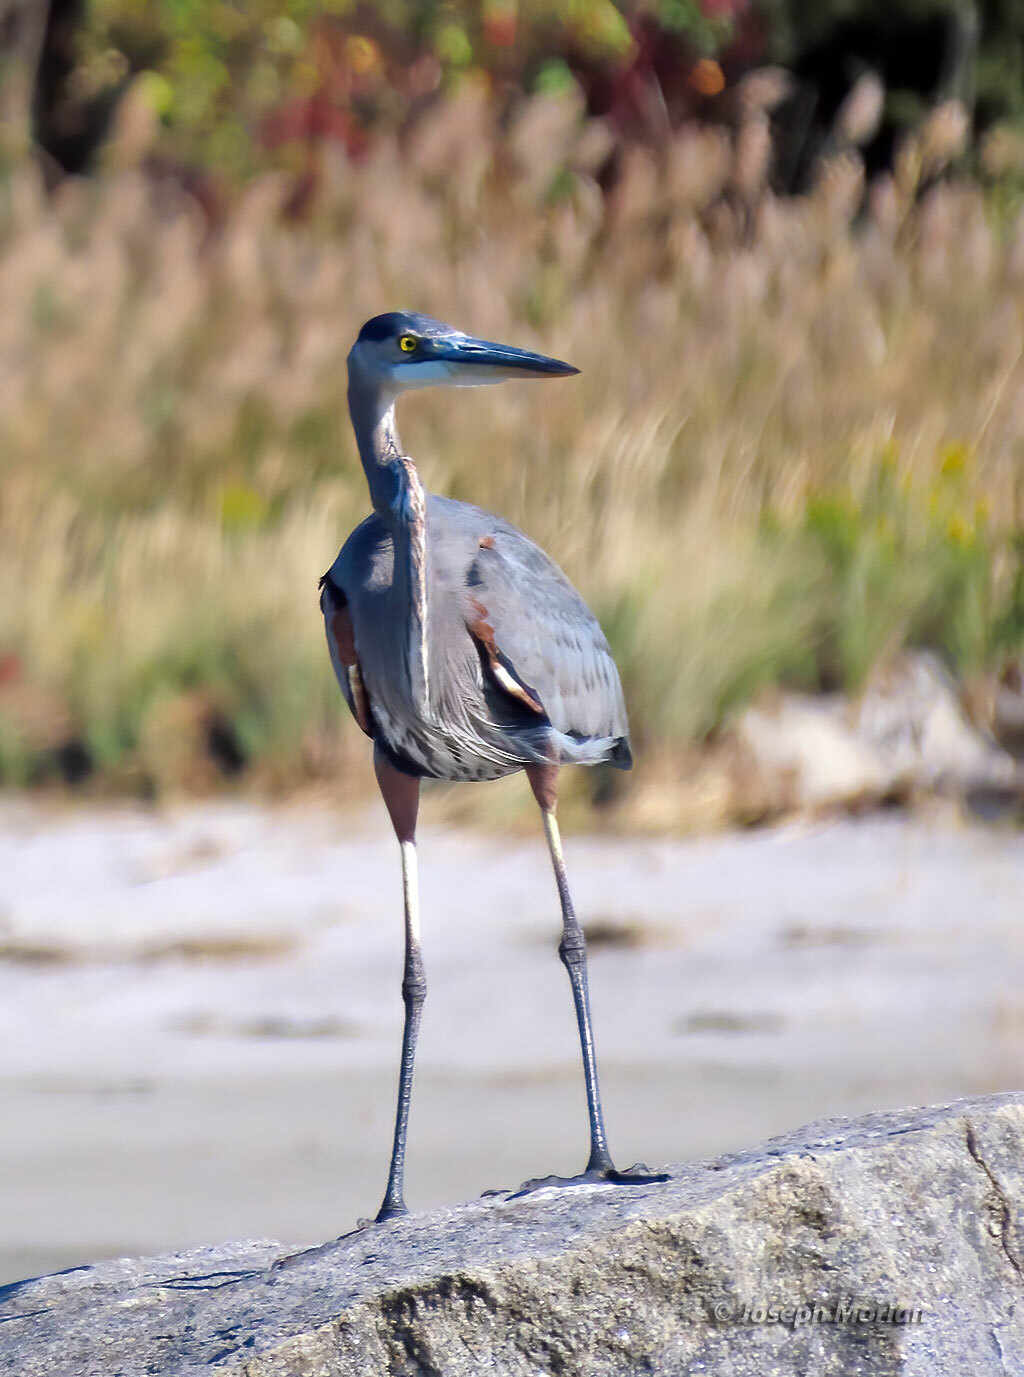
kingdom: Animalia
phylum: Chordata
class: Aves
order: Pelecaniformes
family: Ardeidae
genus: Ardea
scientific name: Ardea herodias
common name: Great blue heron
